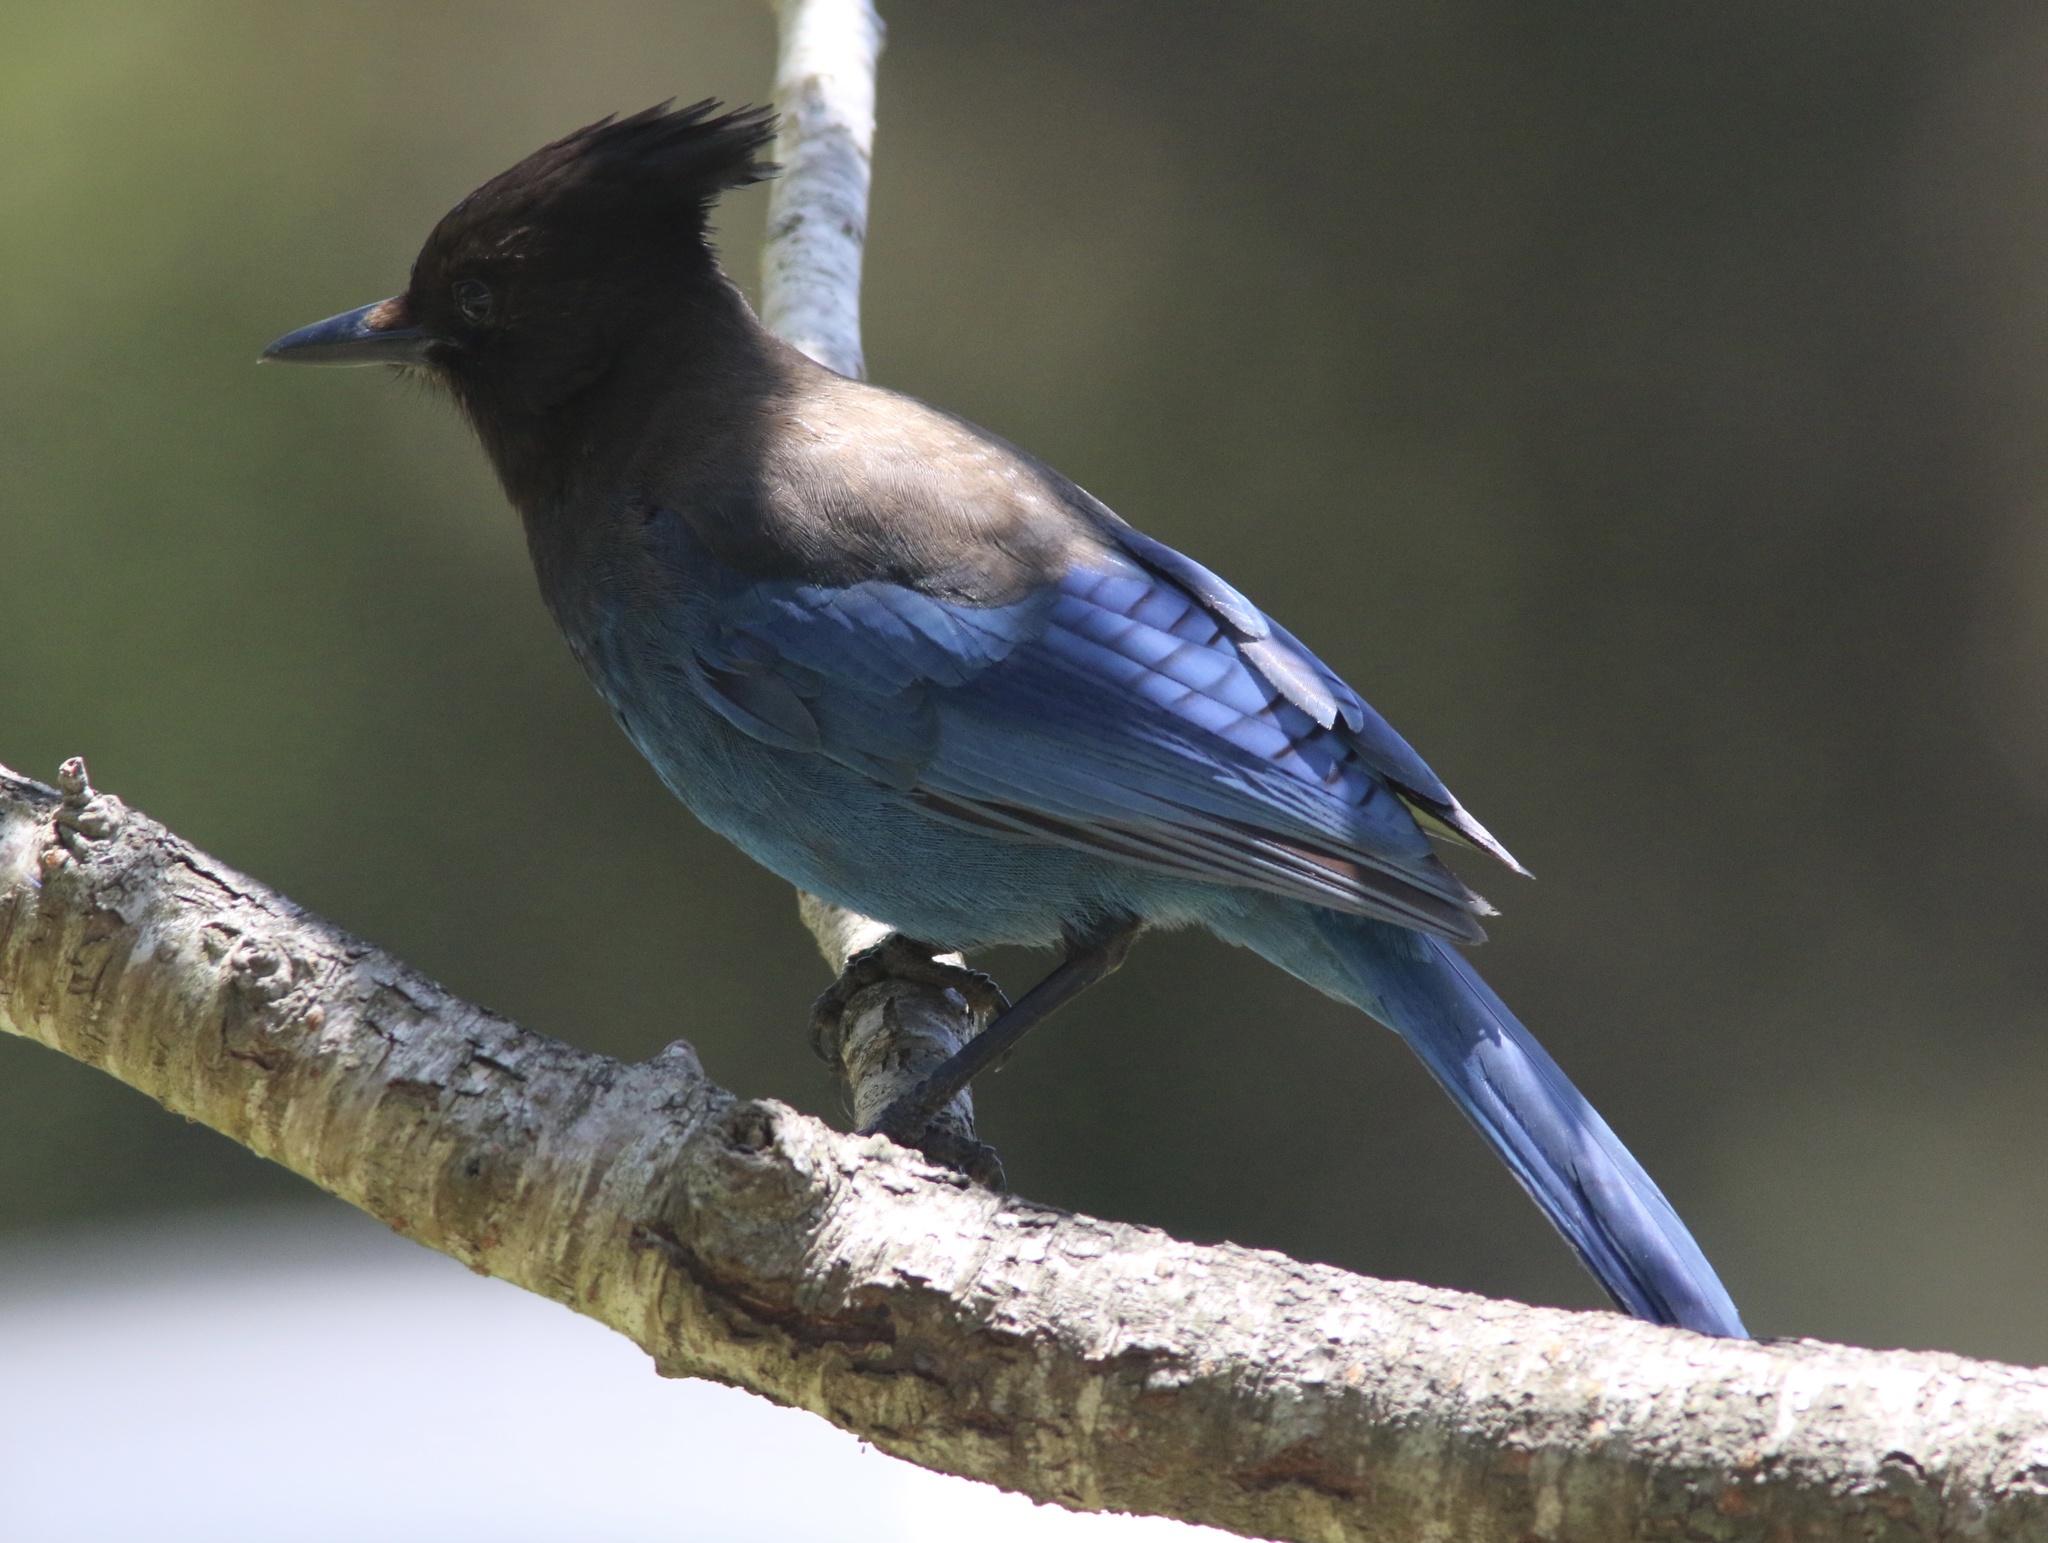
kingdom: Animalia
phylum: Chordata
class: Aves
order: Passeriformes
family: Corvidae
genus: Cyanocitta
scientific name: Cyanocitta stelleri
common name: Steller's jay
